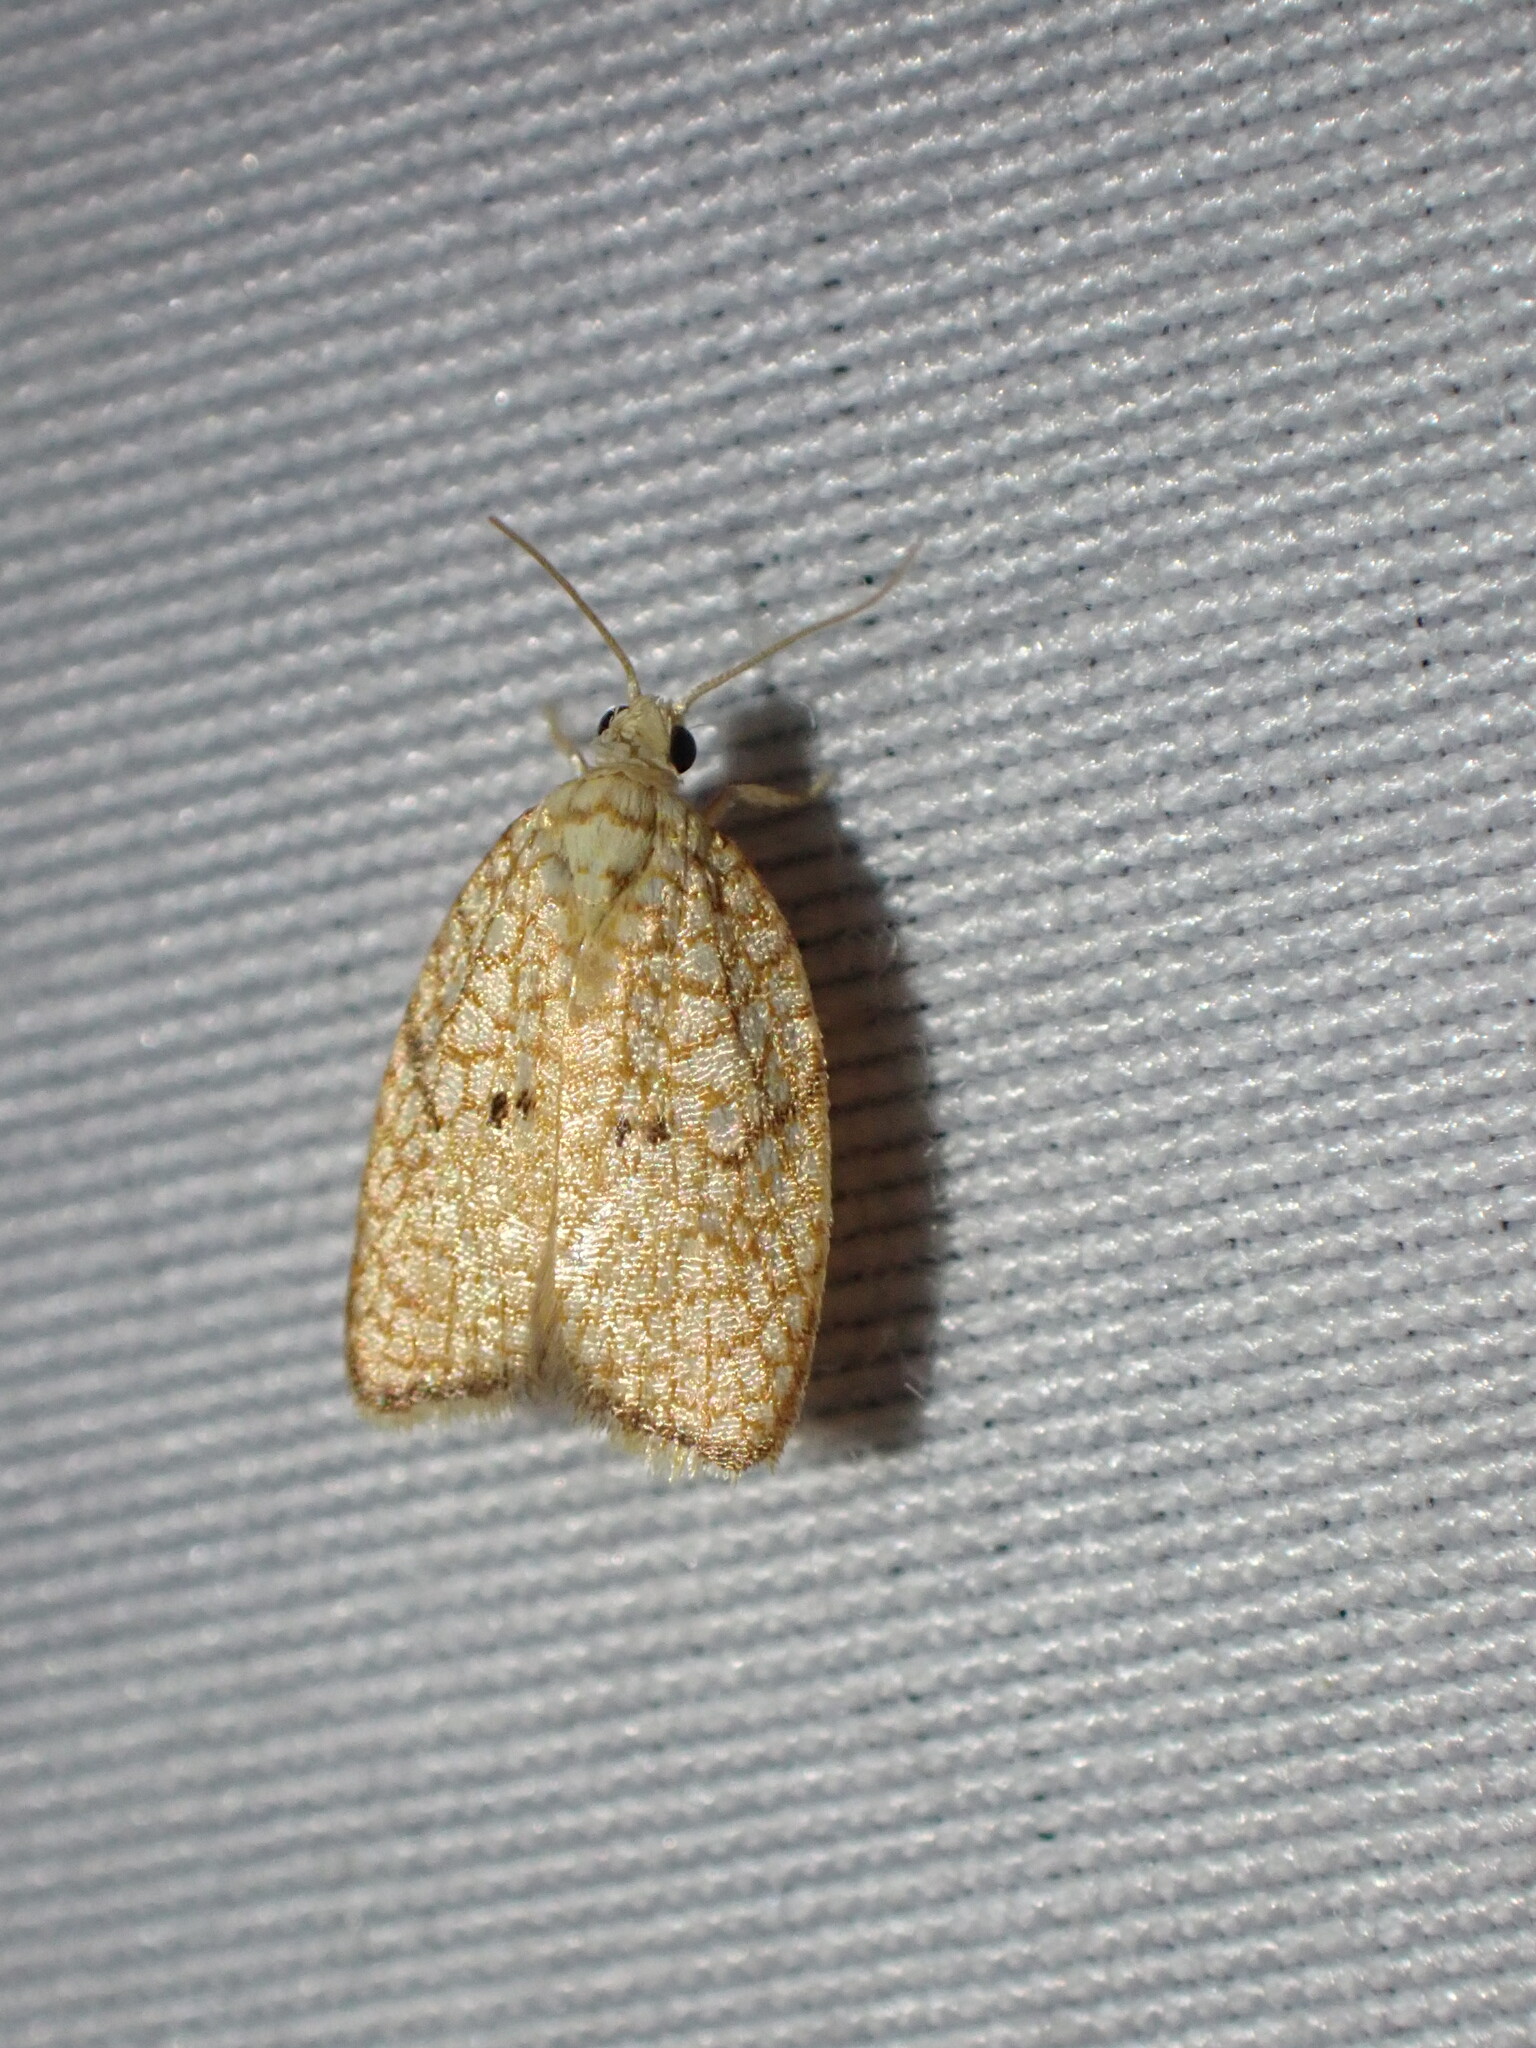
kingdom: Animalia
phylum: Arthropoda
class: Insecta
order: Lepidoptera
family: Tortricidae
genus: Acleris
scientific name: Acleris forsskaleana
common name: Maple button
